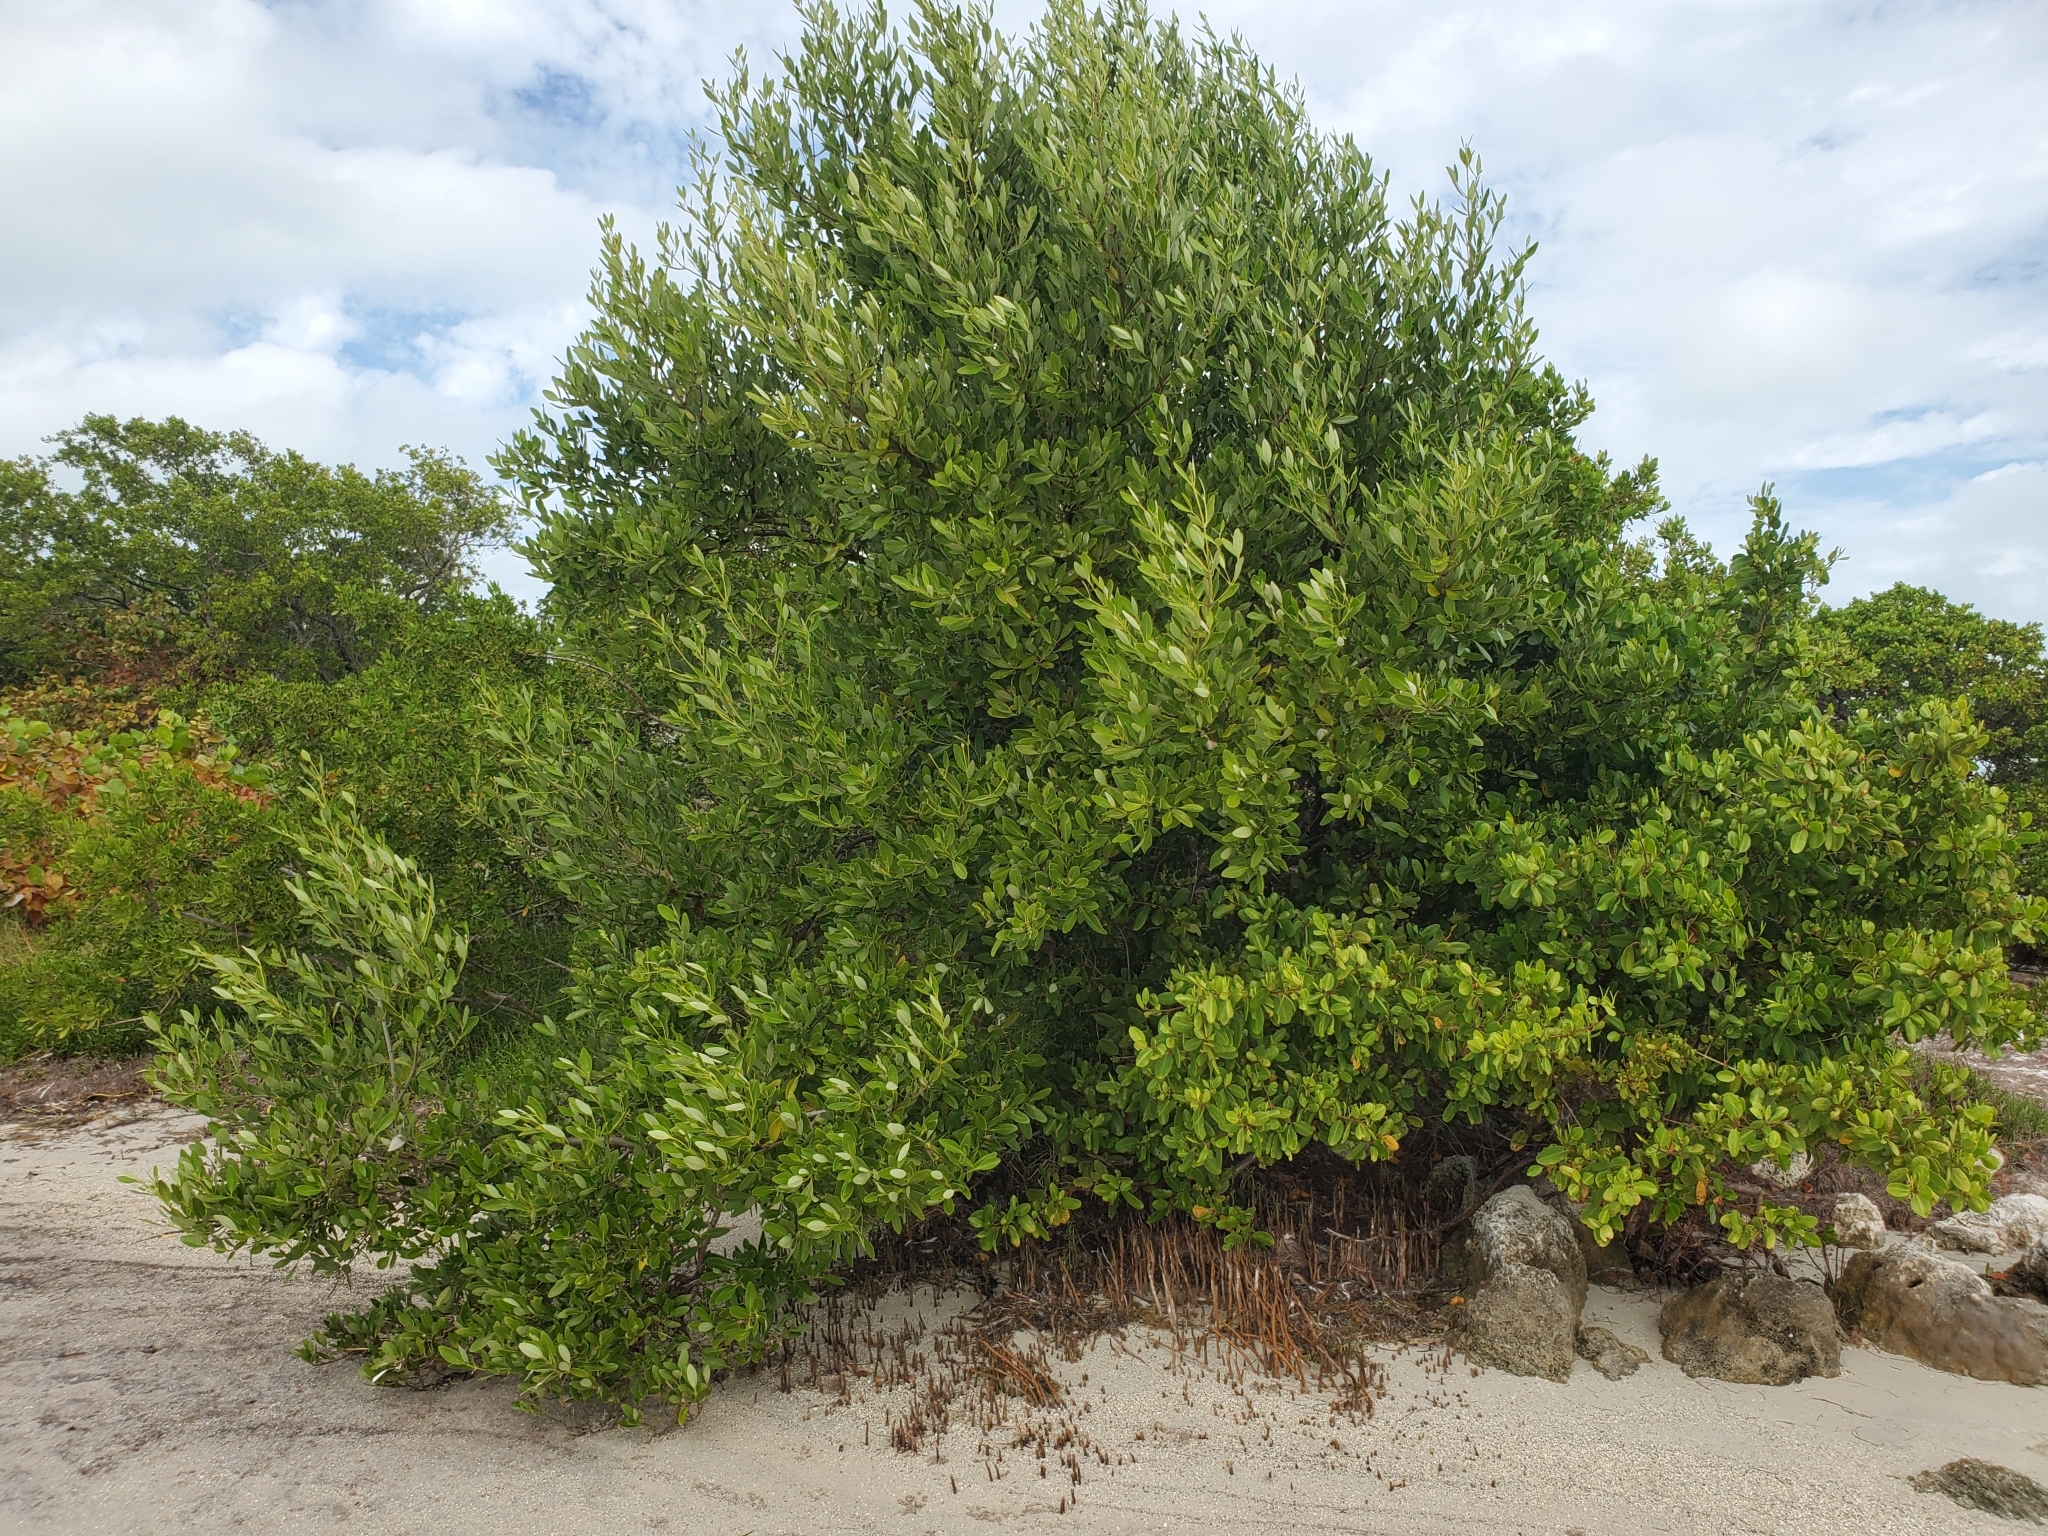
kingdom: Plantae
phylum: Tracheophyta
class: Magnoliopsida
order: Lamiales
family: Acanthaceae
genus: Avicennia
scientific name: Avicennia germinans
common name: Black mangrove
